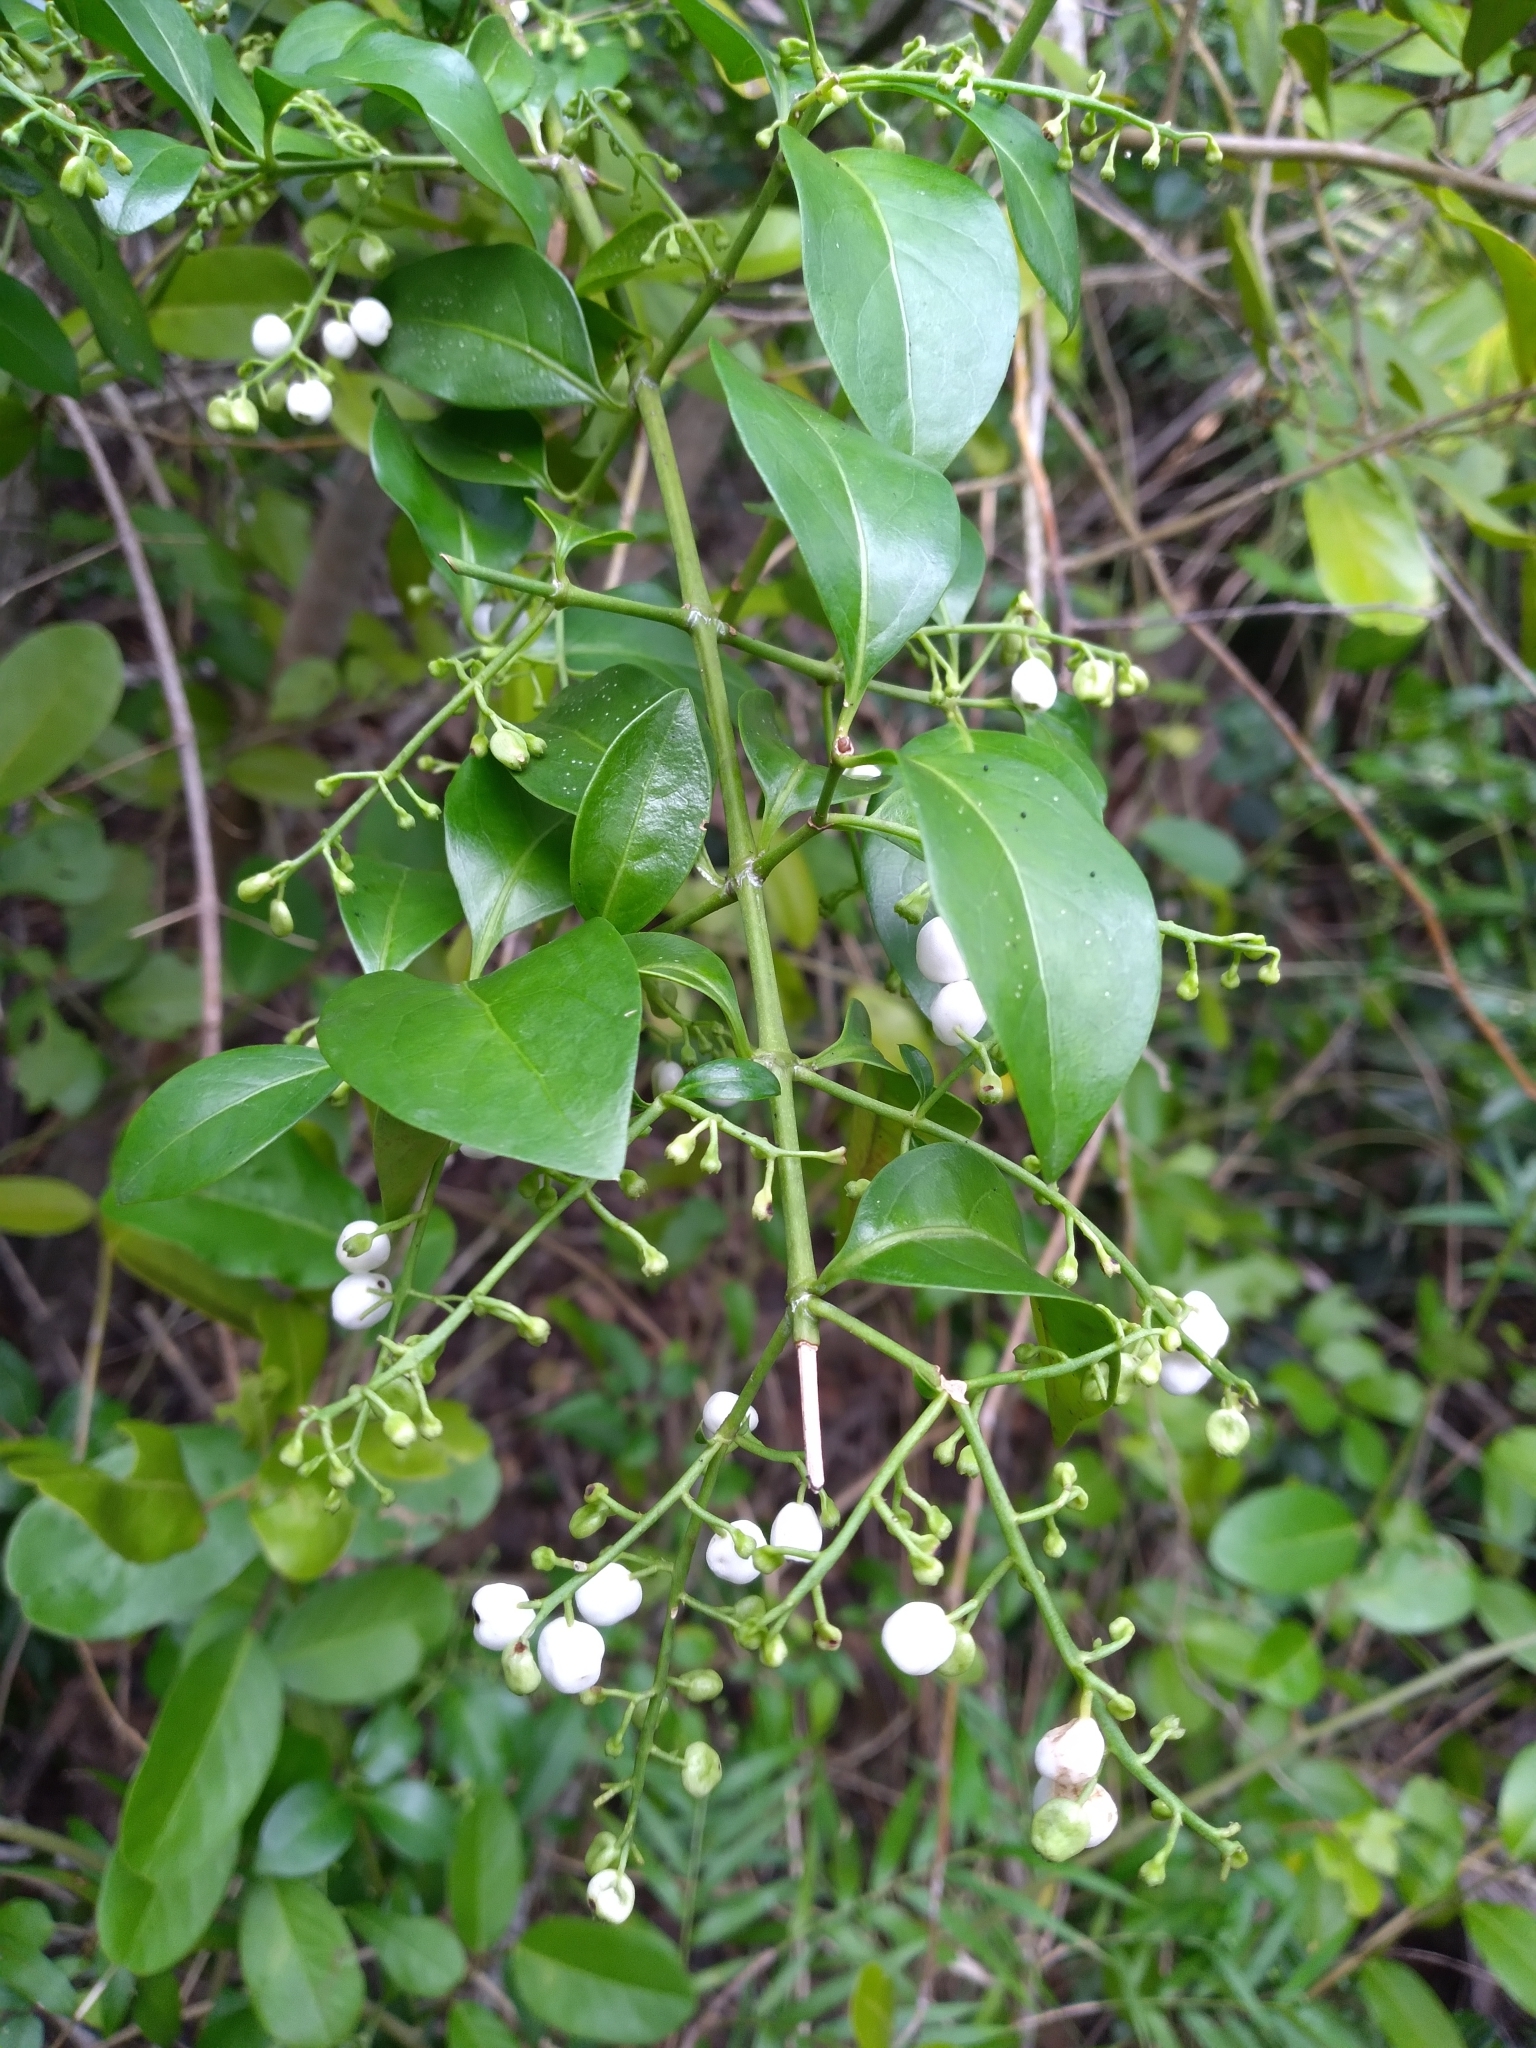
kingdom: Plantae
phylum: Tracheophyta
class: Magnoliopsida
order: Gentianales
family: Rubiaceae
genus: Chiococca
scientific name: Chiococca alba
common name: Snowberry
